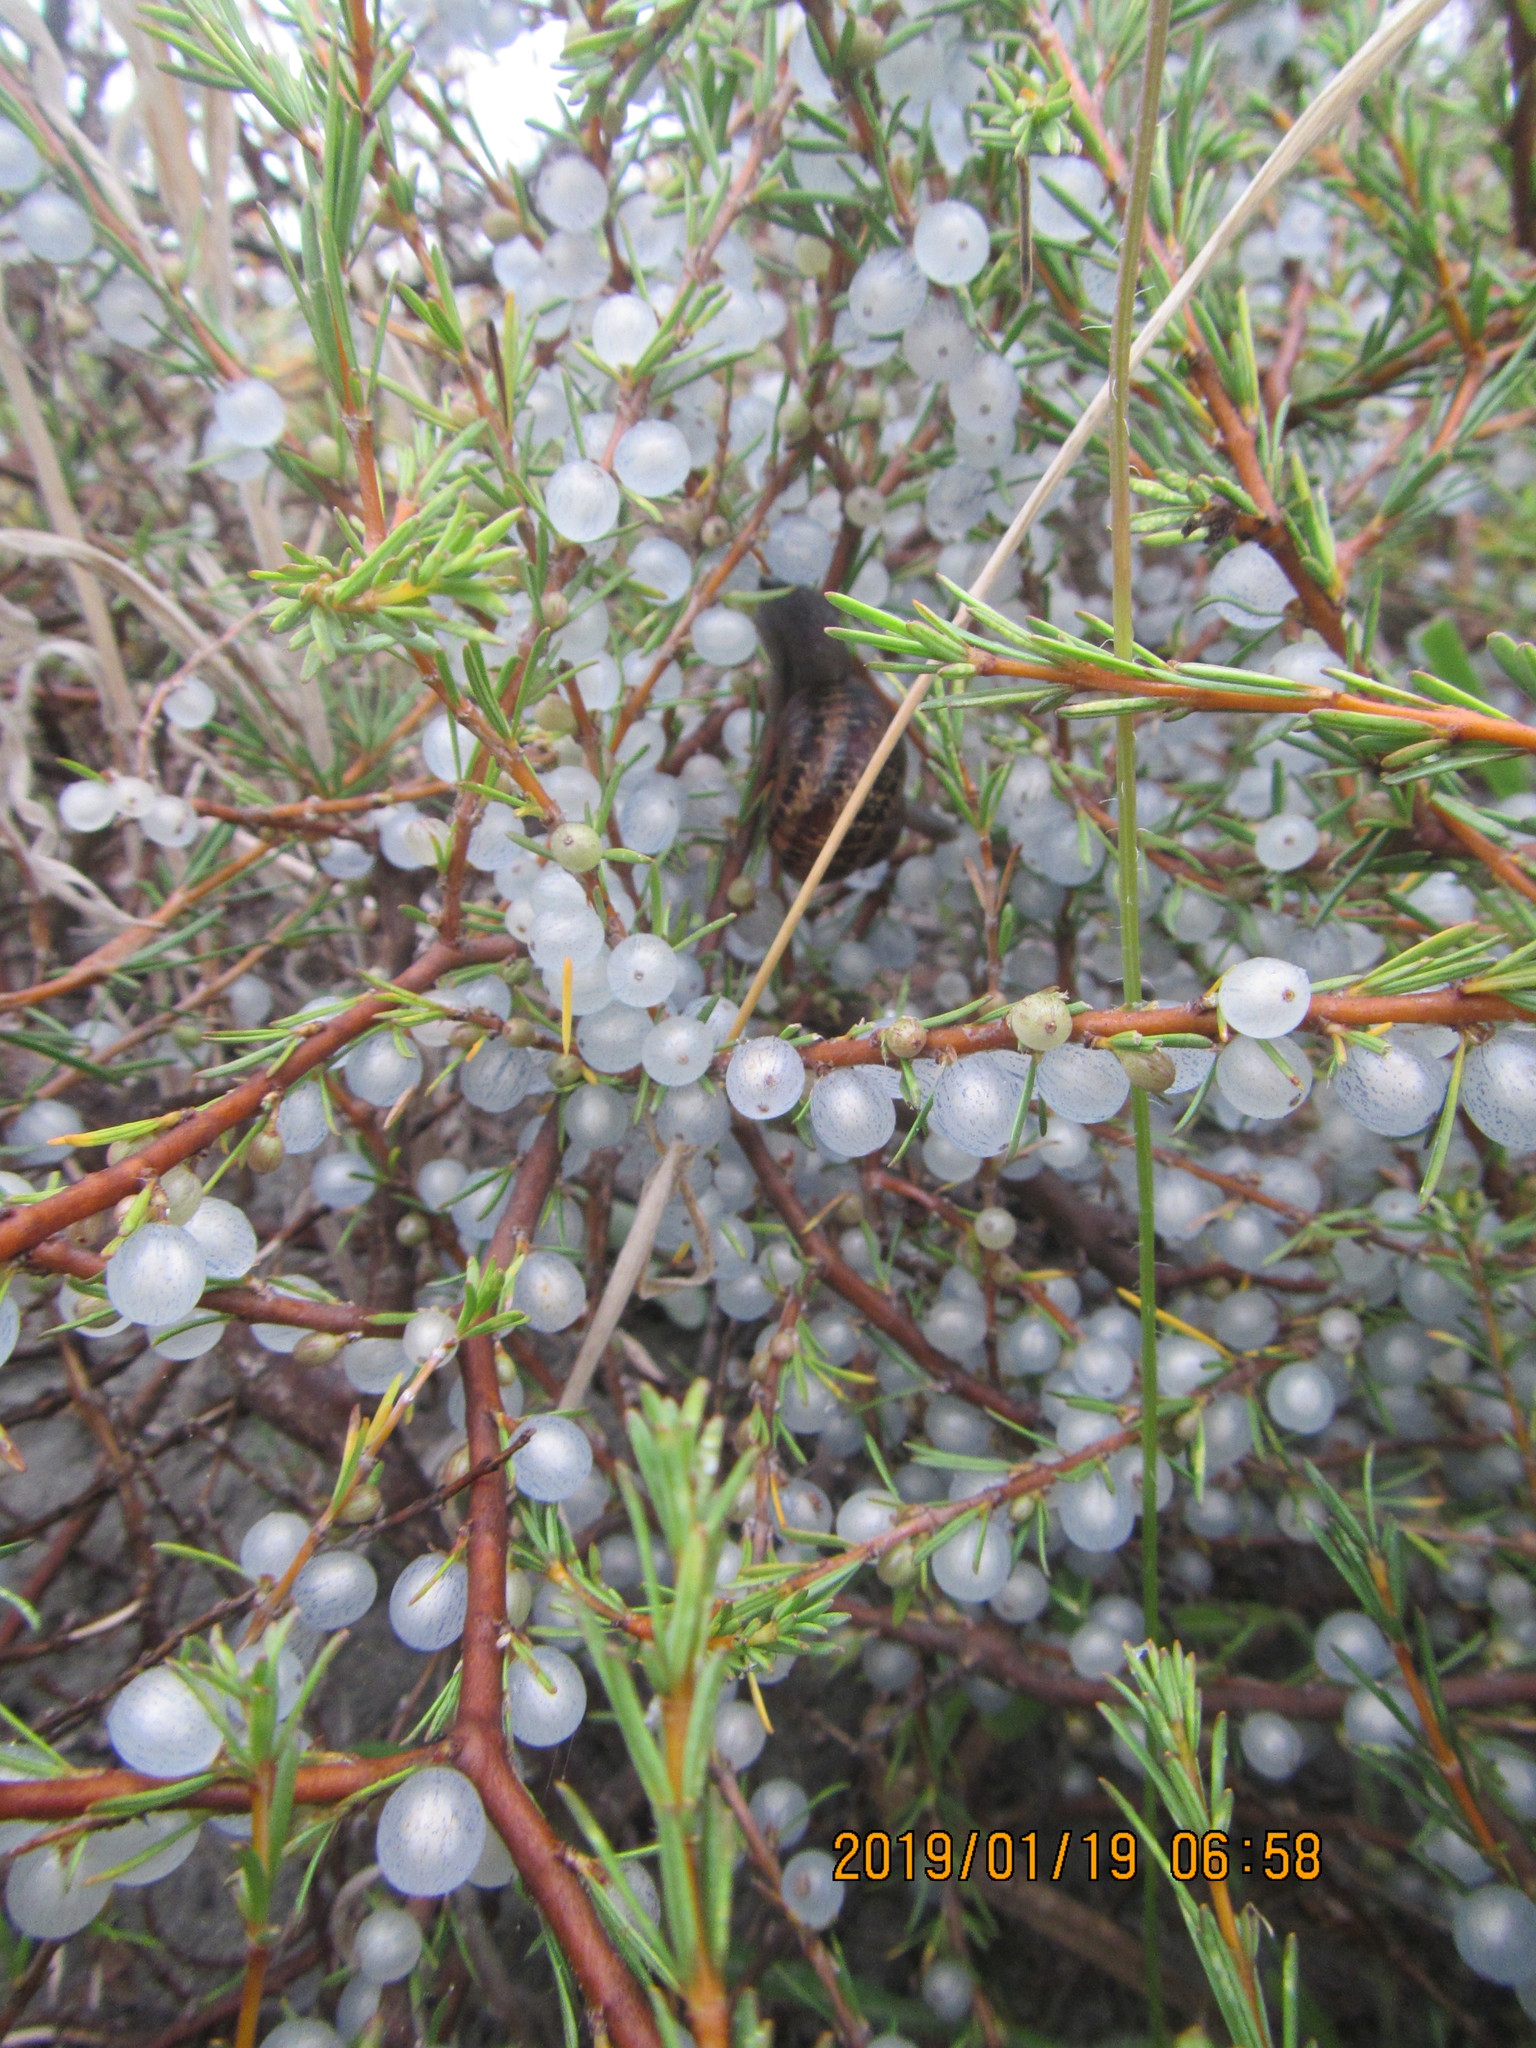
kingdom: Plantae
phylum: Tracheophyta
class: Magnoliopsida
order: Gentianales
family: Rubiaceae
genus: Coprosma
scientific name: Coprosma acerosa
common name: Sand coprosma
